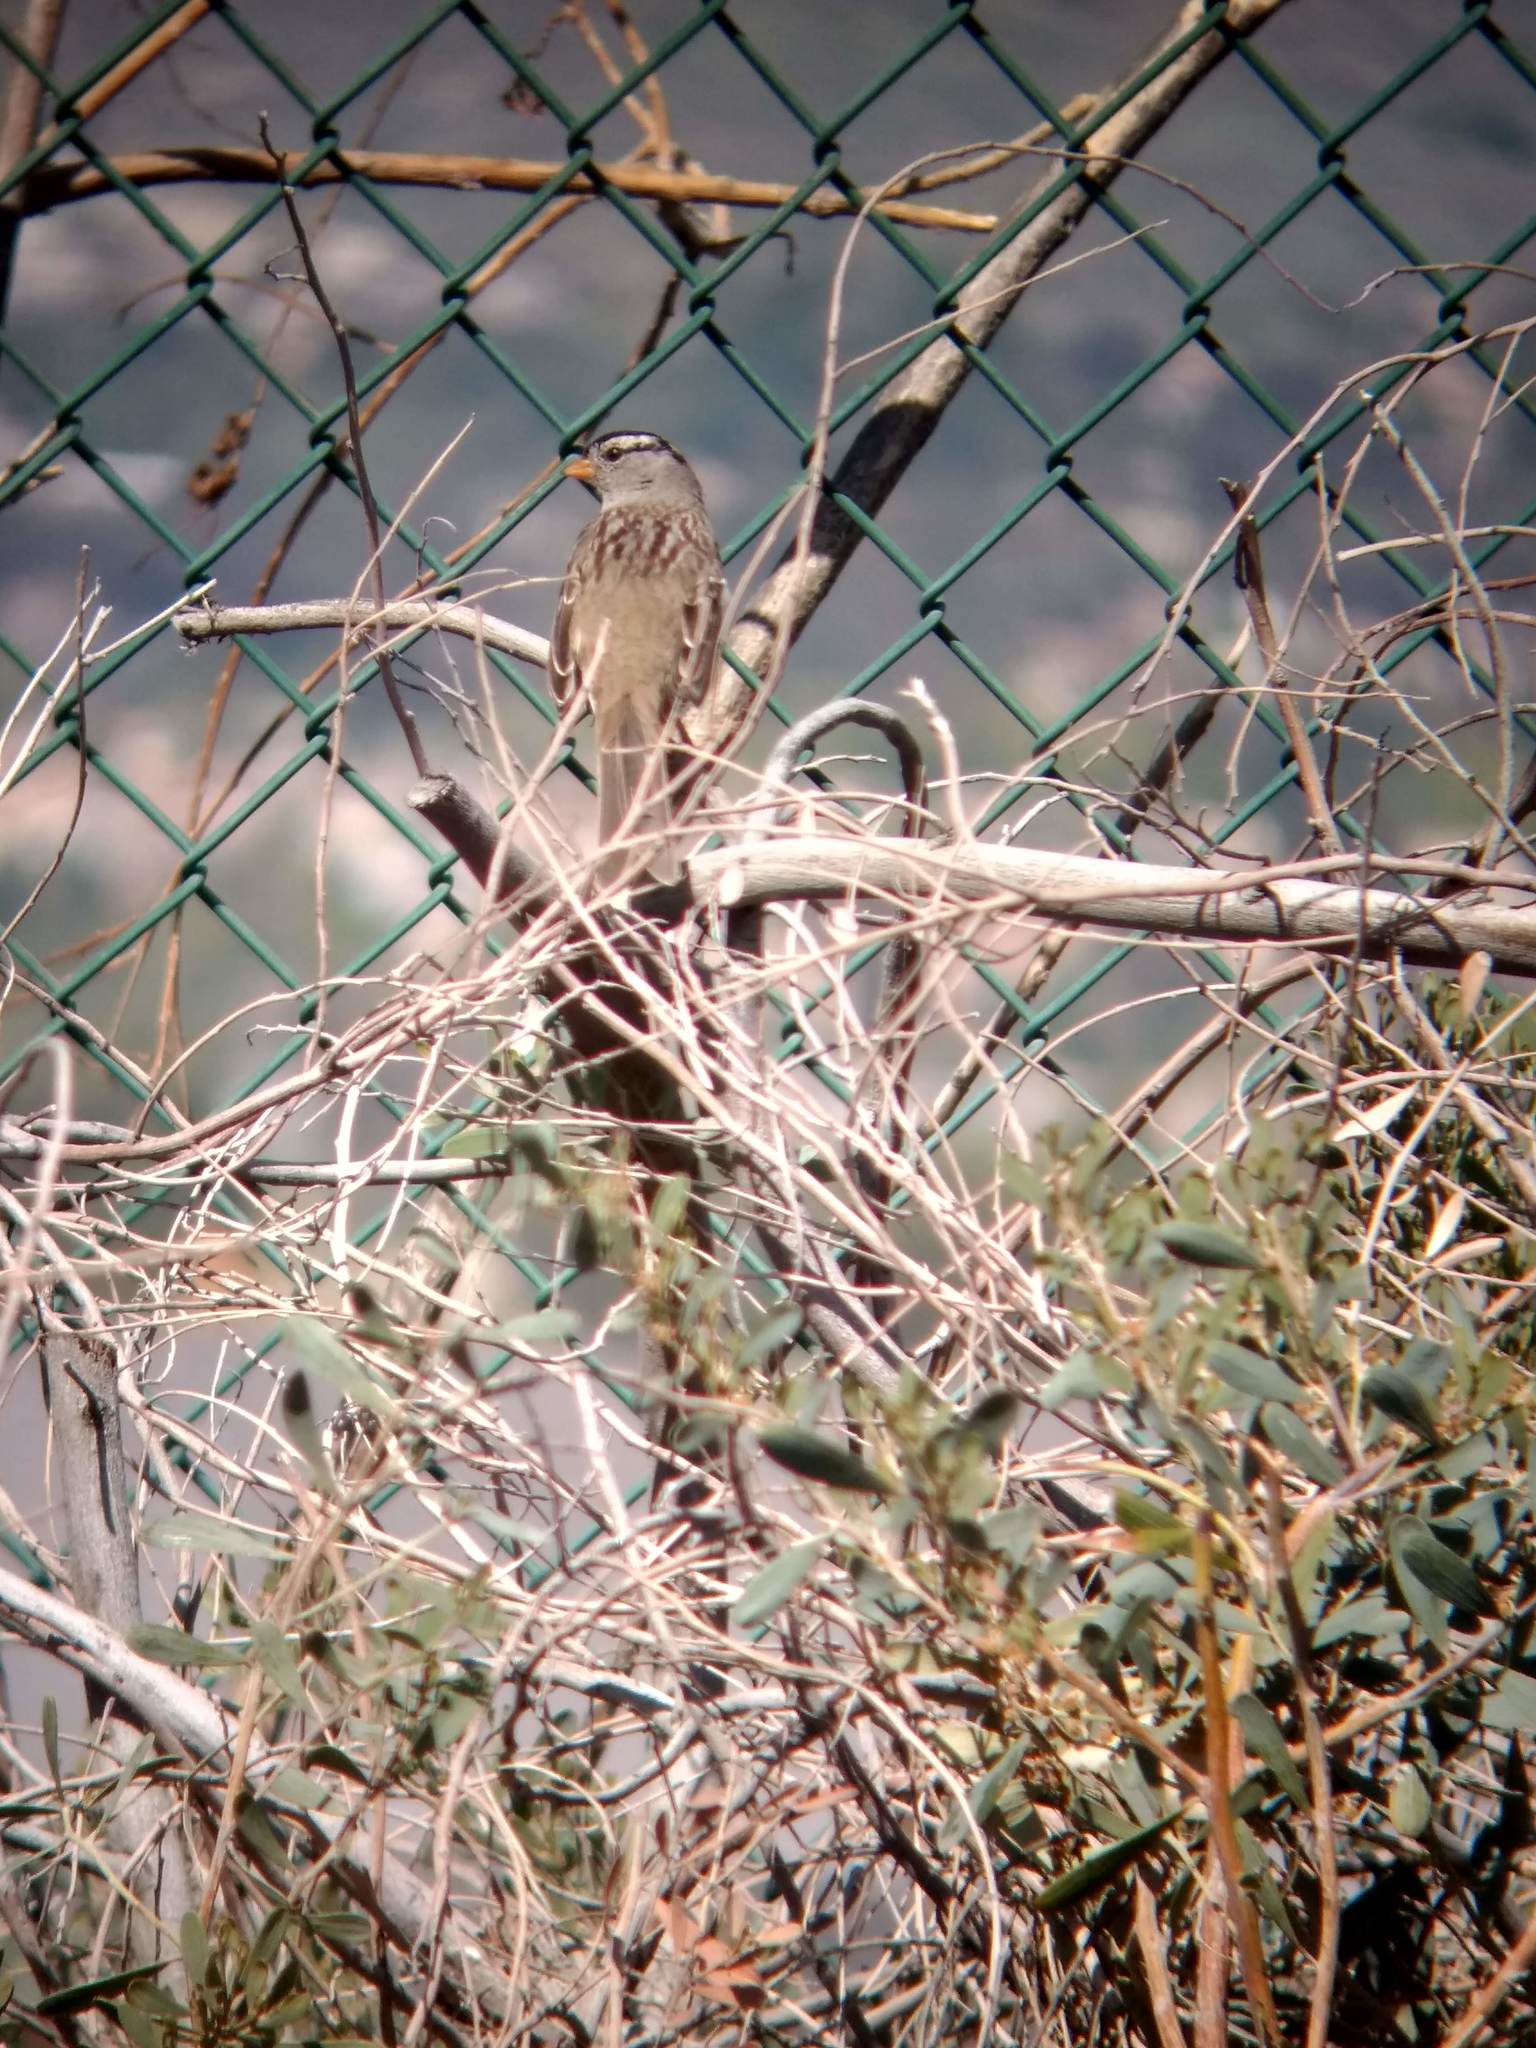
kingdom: Animalia
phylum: Chordata
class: Aves
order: Passeriformes
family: Passerellidae
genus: Zonotrichia
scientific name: Zonotrichia leucophrys
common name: White-crowned sparrow
